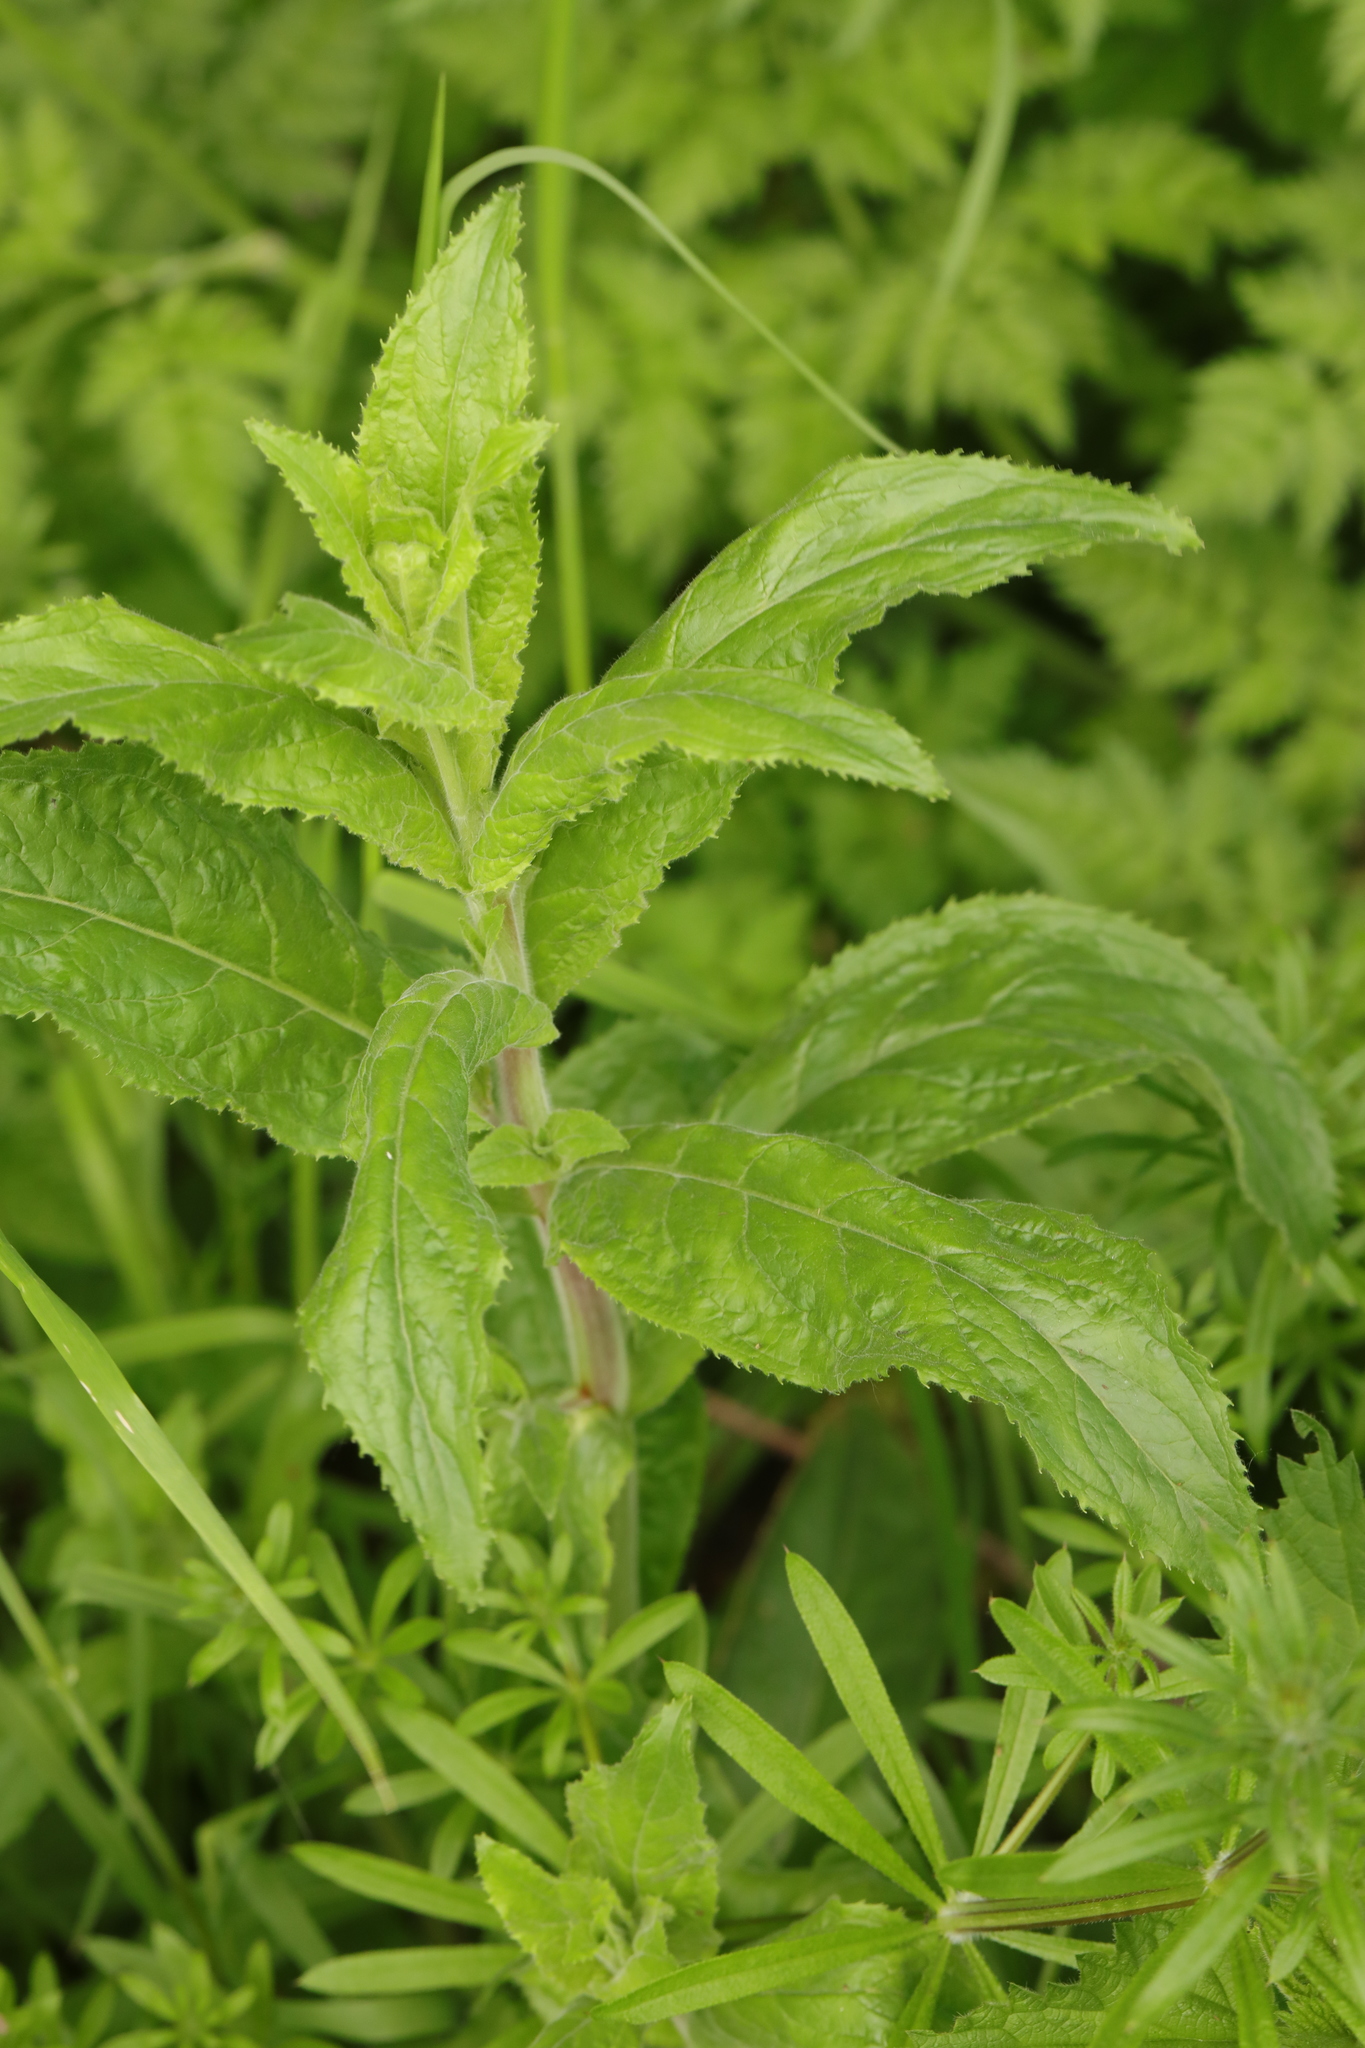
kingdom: Plantae
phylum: Tracheophyta
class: Magnoliopsida
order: Myrtales
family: Onagraceae
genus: Epilobium
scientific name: Epilobium hirsutum
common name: Great willowherb
